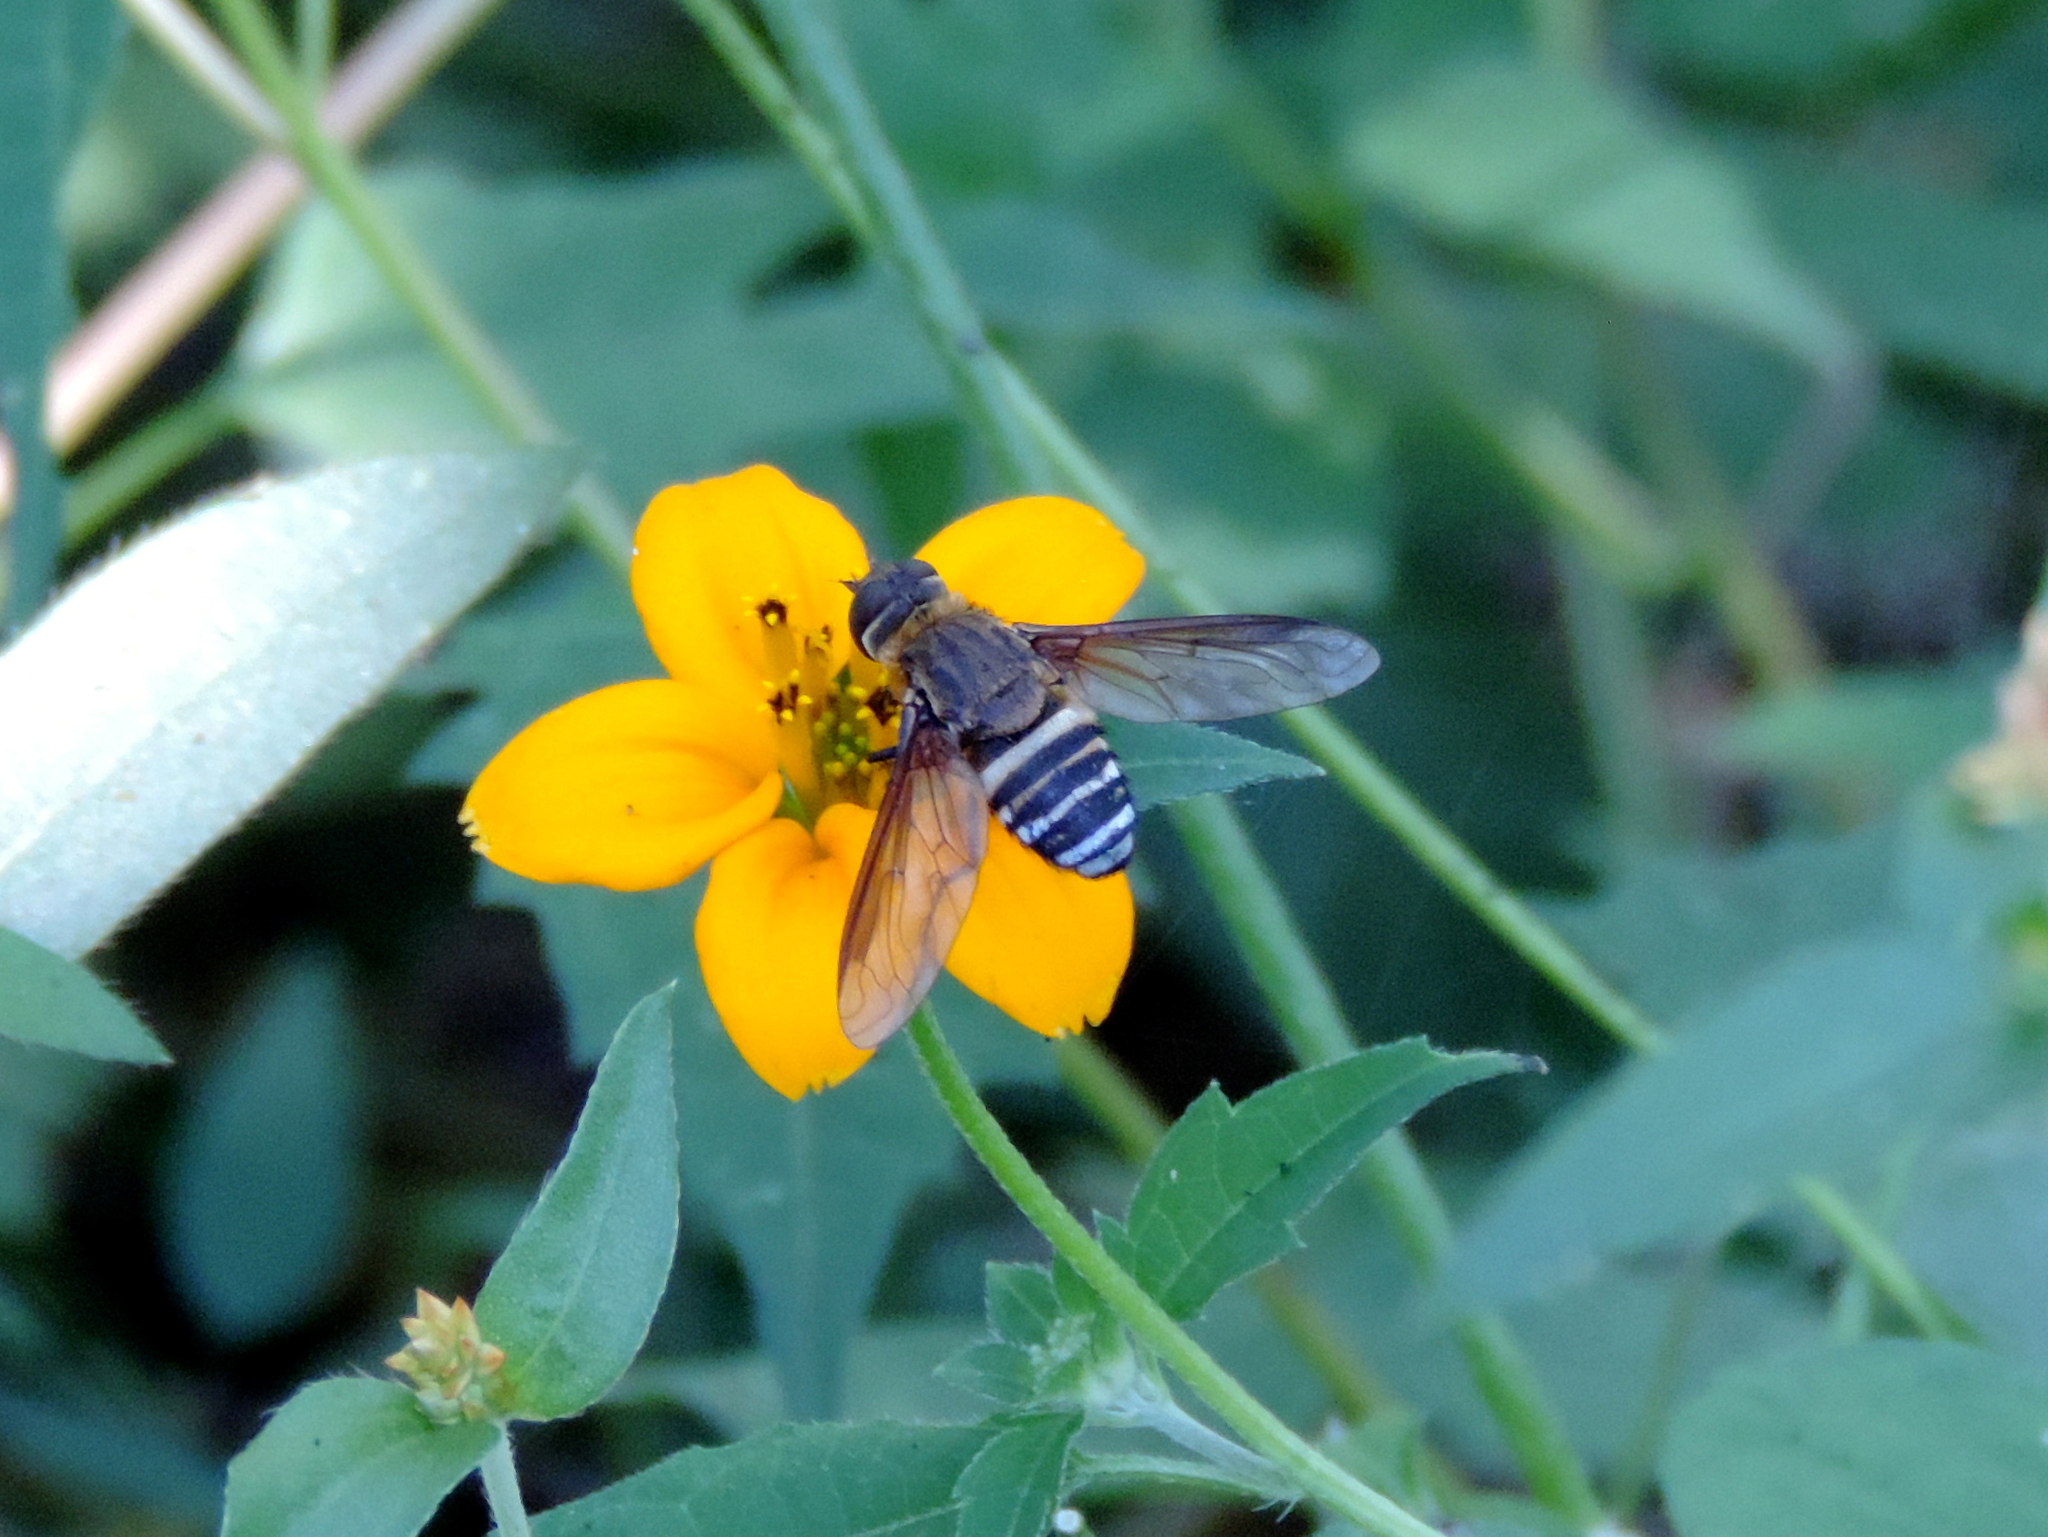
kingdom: Animalia
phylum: Arthropoda
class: Insecta
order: Diptera
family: Bombyliidae
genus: Exoprosopa
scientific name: Exoprosopa
